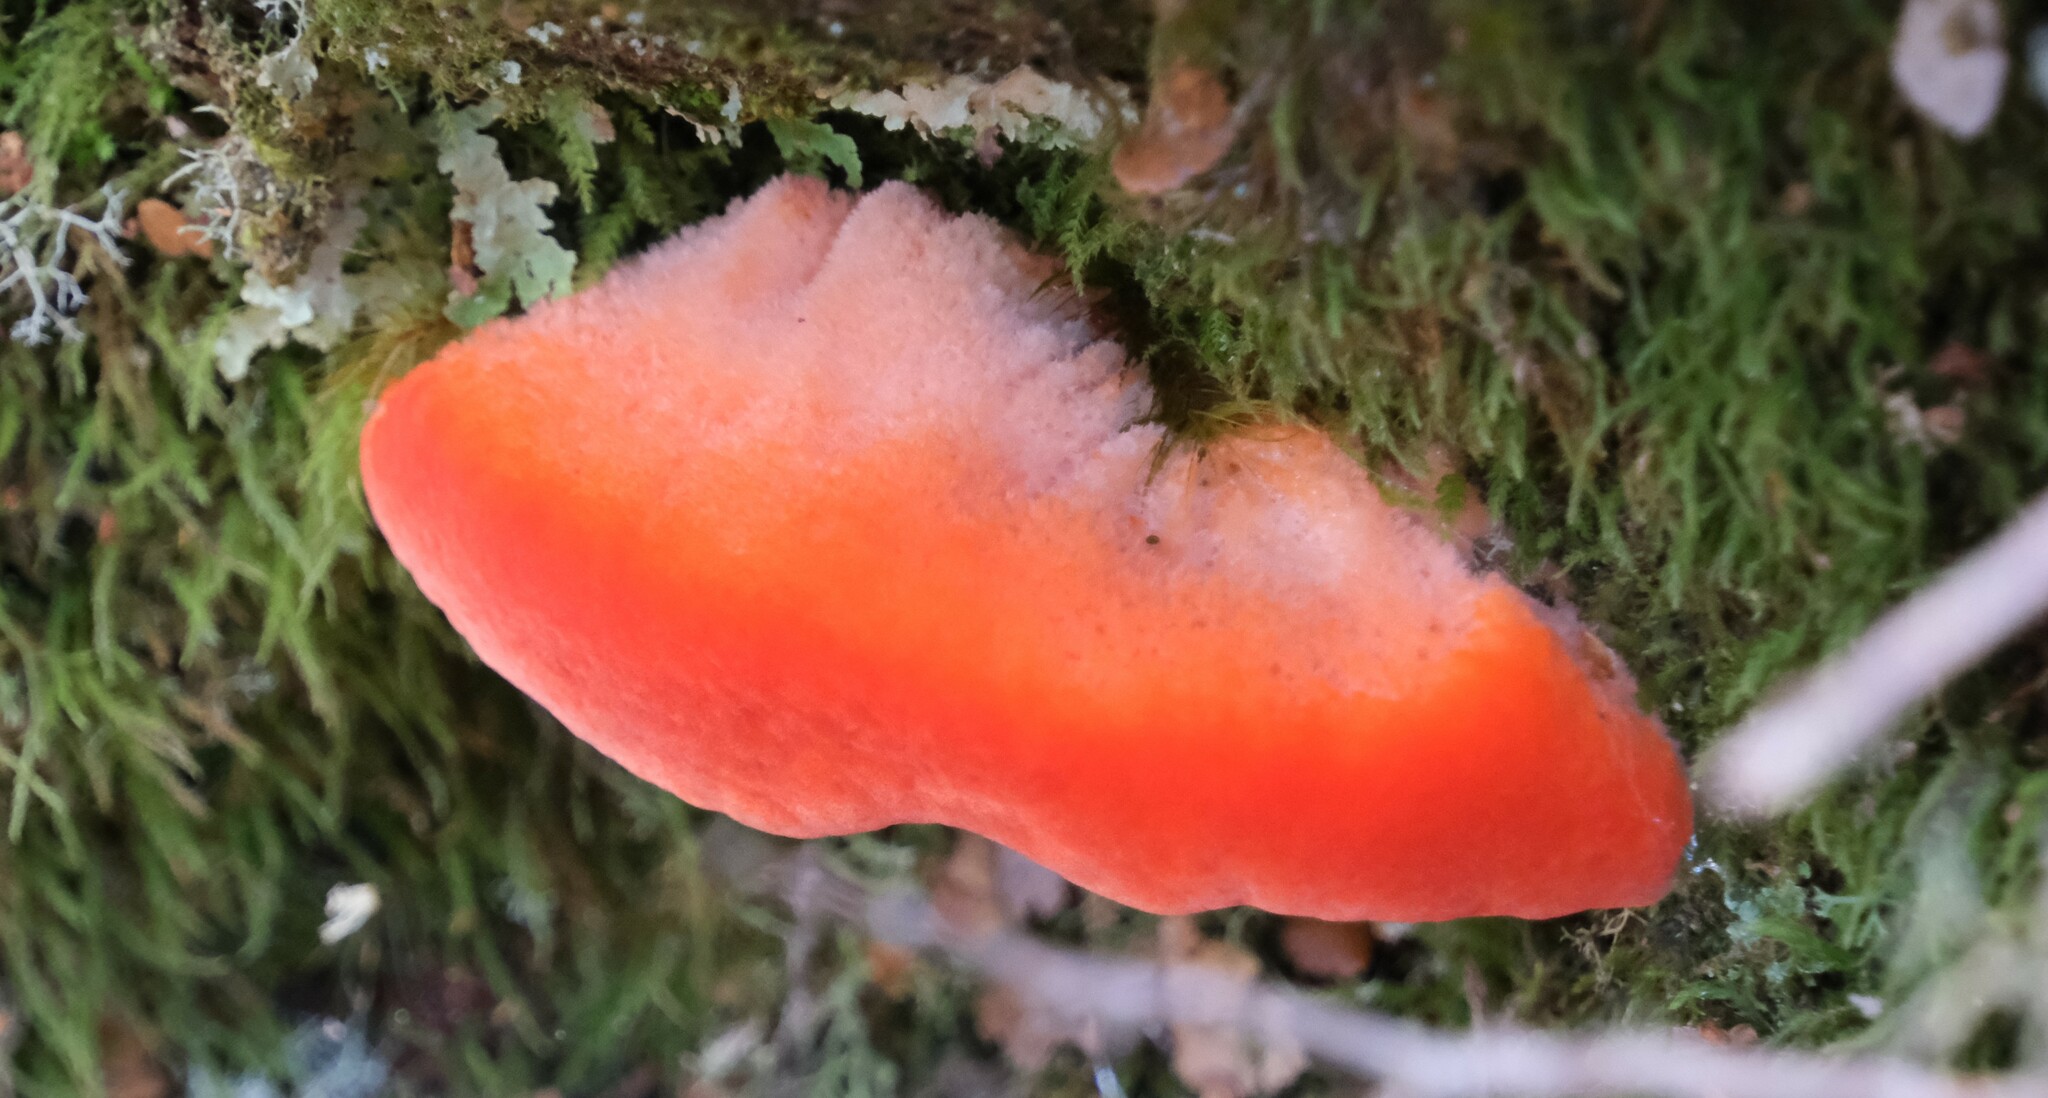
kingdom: Fungi
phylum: Basidiomycota
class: Agaricomycetes
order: Polyporales
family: Incrustoporiaceae
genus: Tyromyces
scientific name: Tyromyces pulcherrimus
